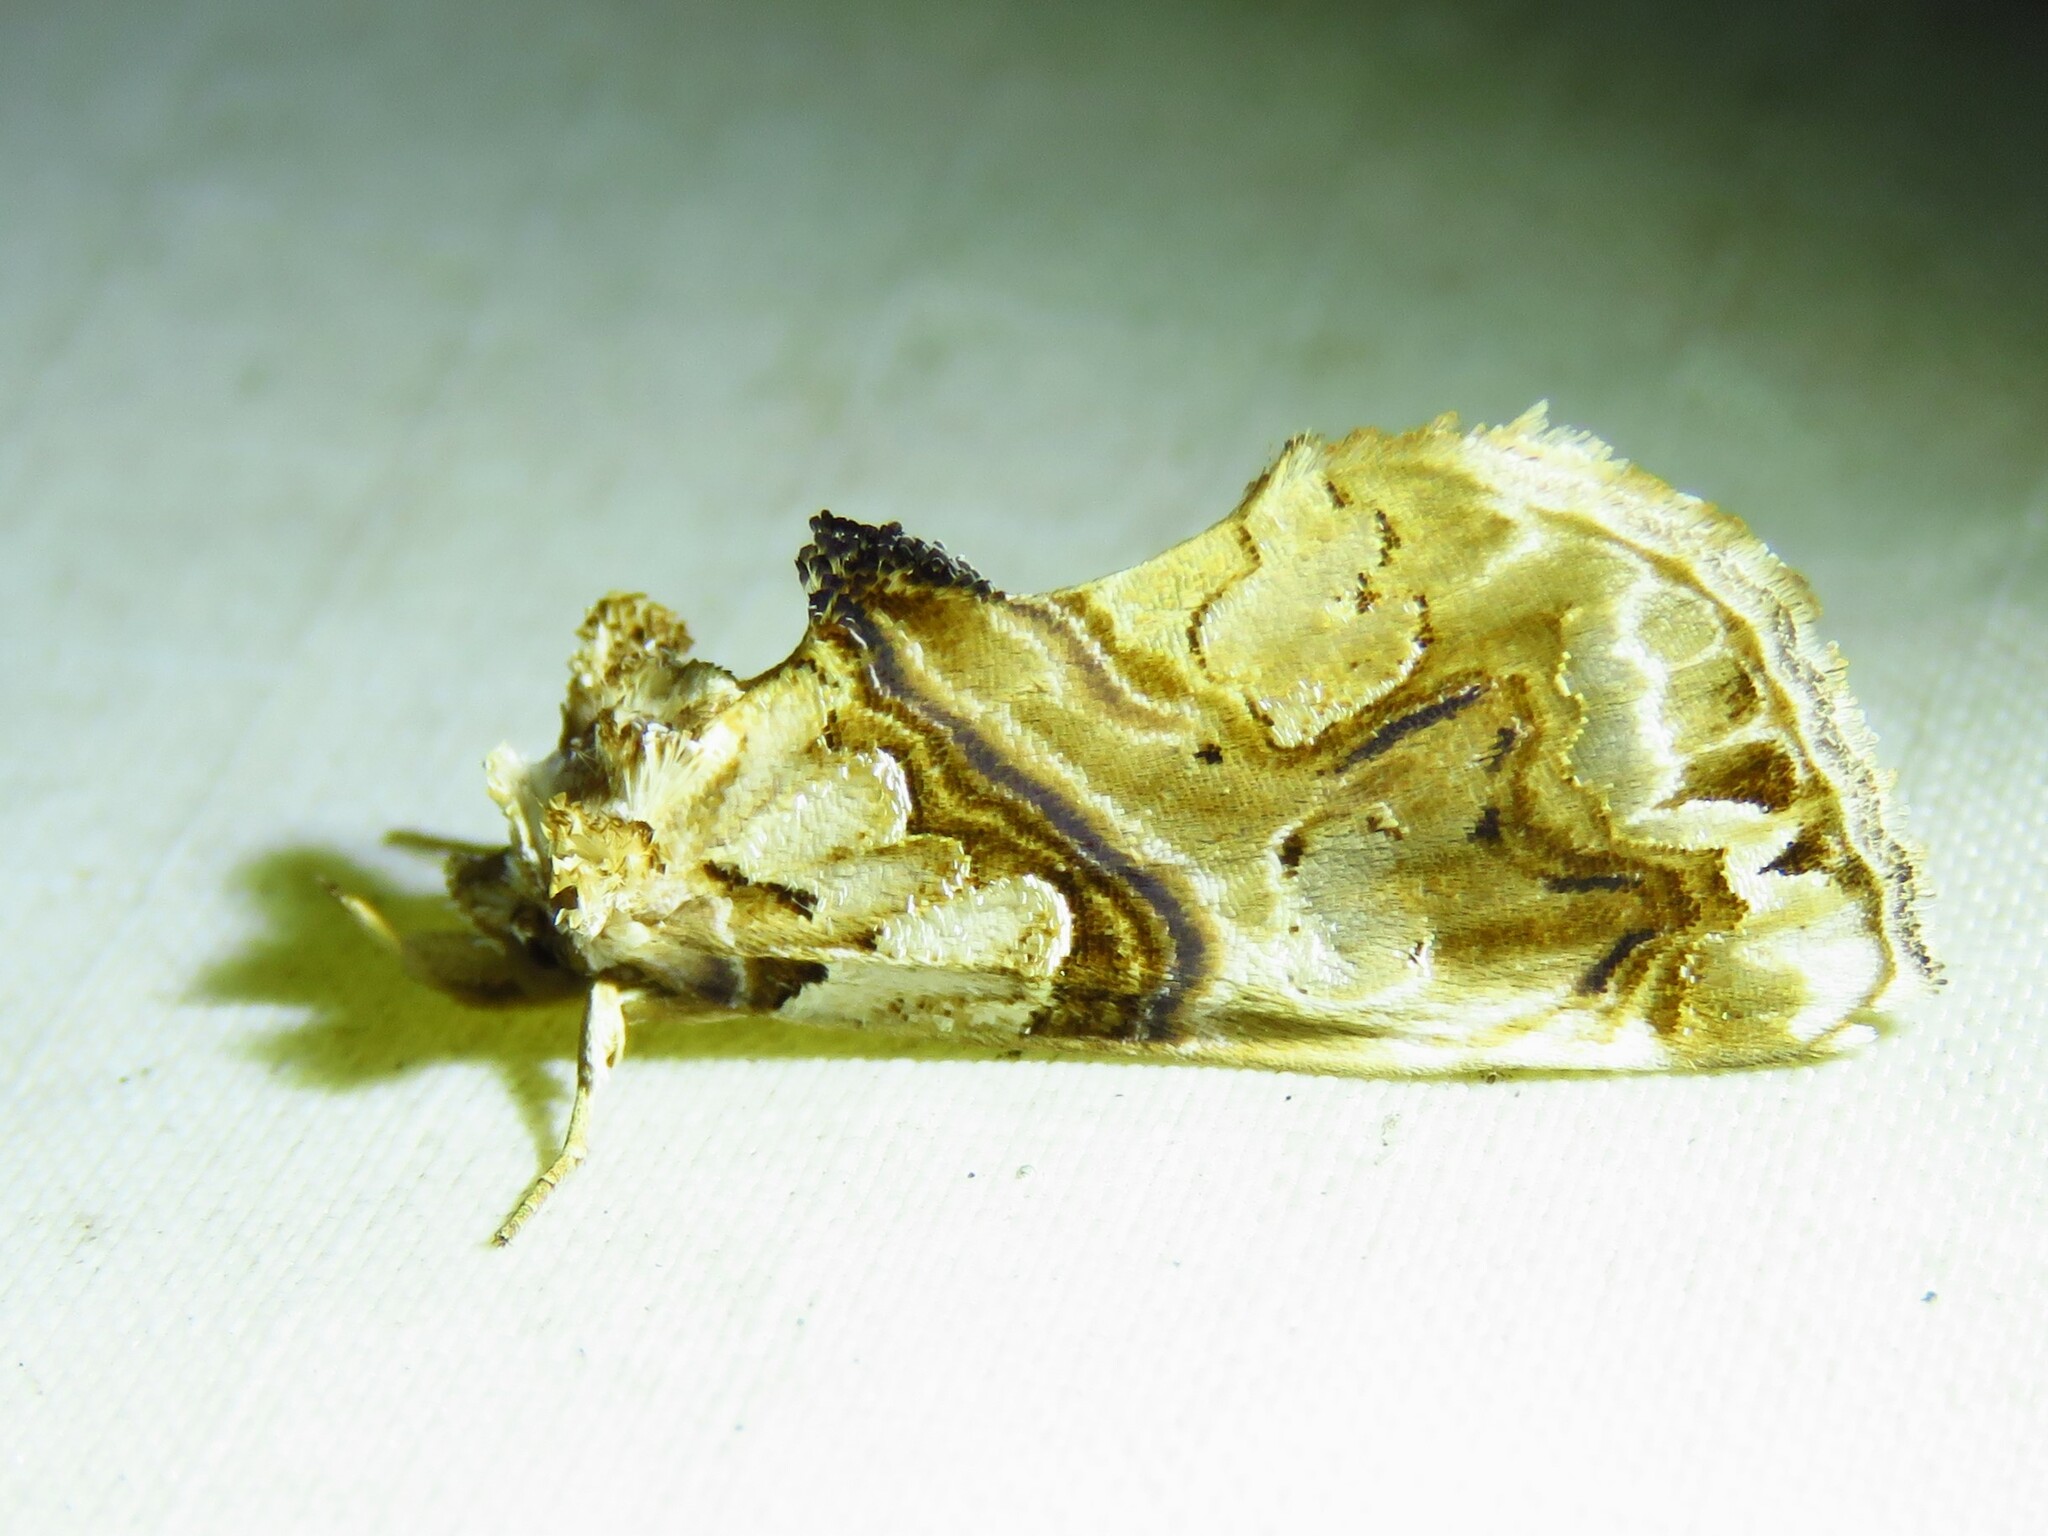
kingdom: Animalia
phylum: Arthropoda
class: Insecta
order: Lepidoptera
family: Erebidae
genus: Plusiodonta
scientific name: Plusiodonta compressipalpis
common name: Moonseed moth
